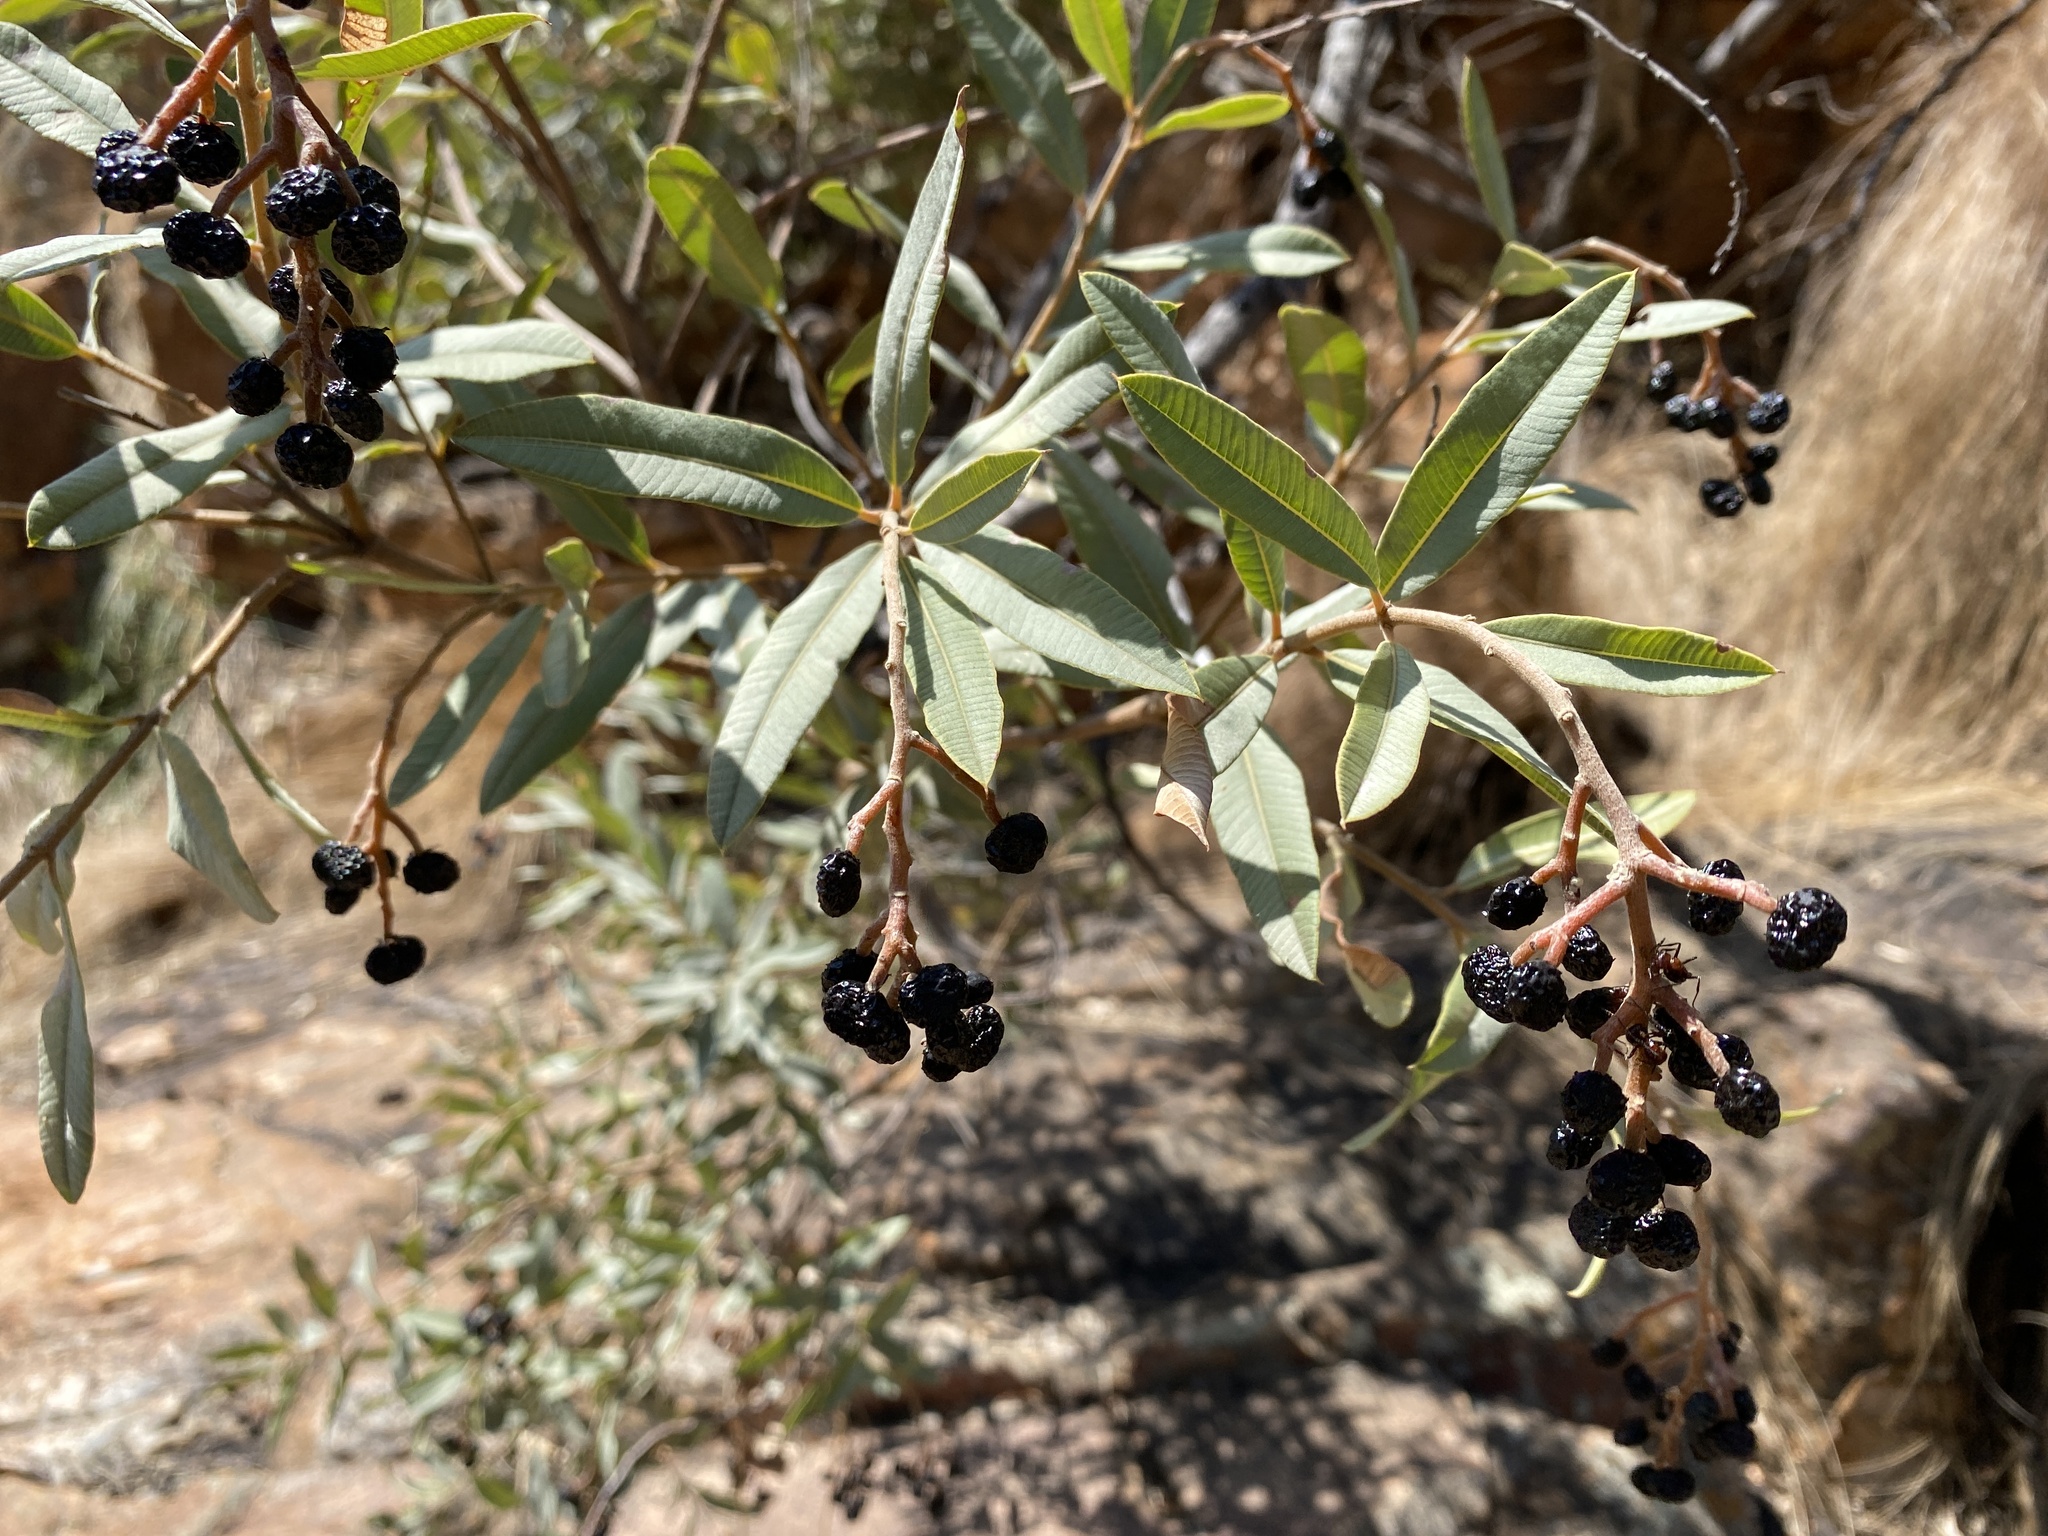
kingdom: Plantae
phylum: Tracheophyta
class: Magnoliopsida
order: Sapindales
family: Anacardiaceae
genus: Ozoroa
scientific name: Ozoroa paniculosa
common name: Bushveld ozoroa
